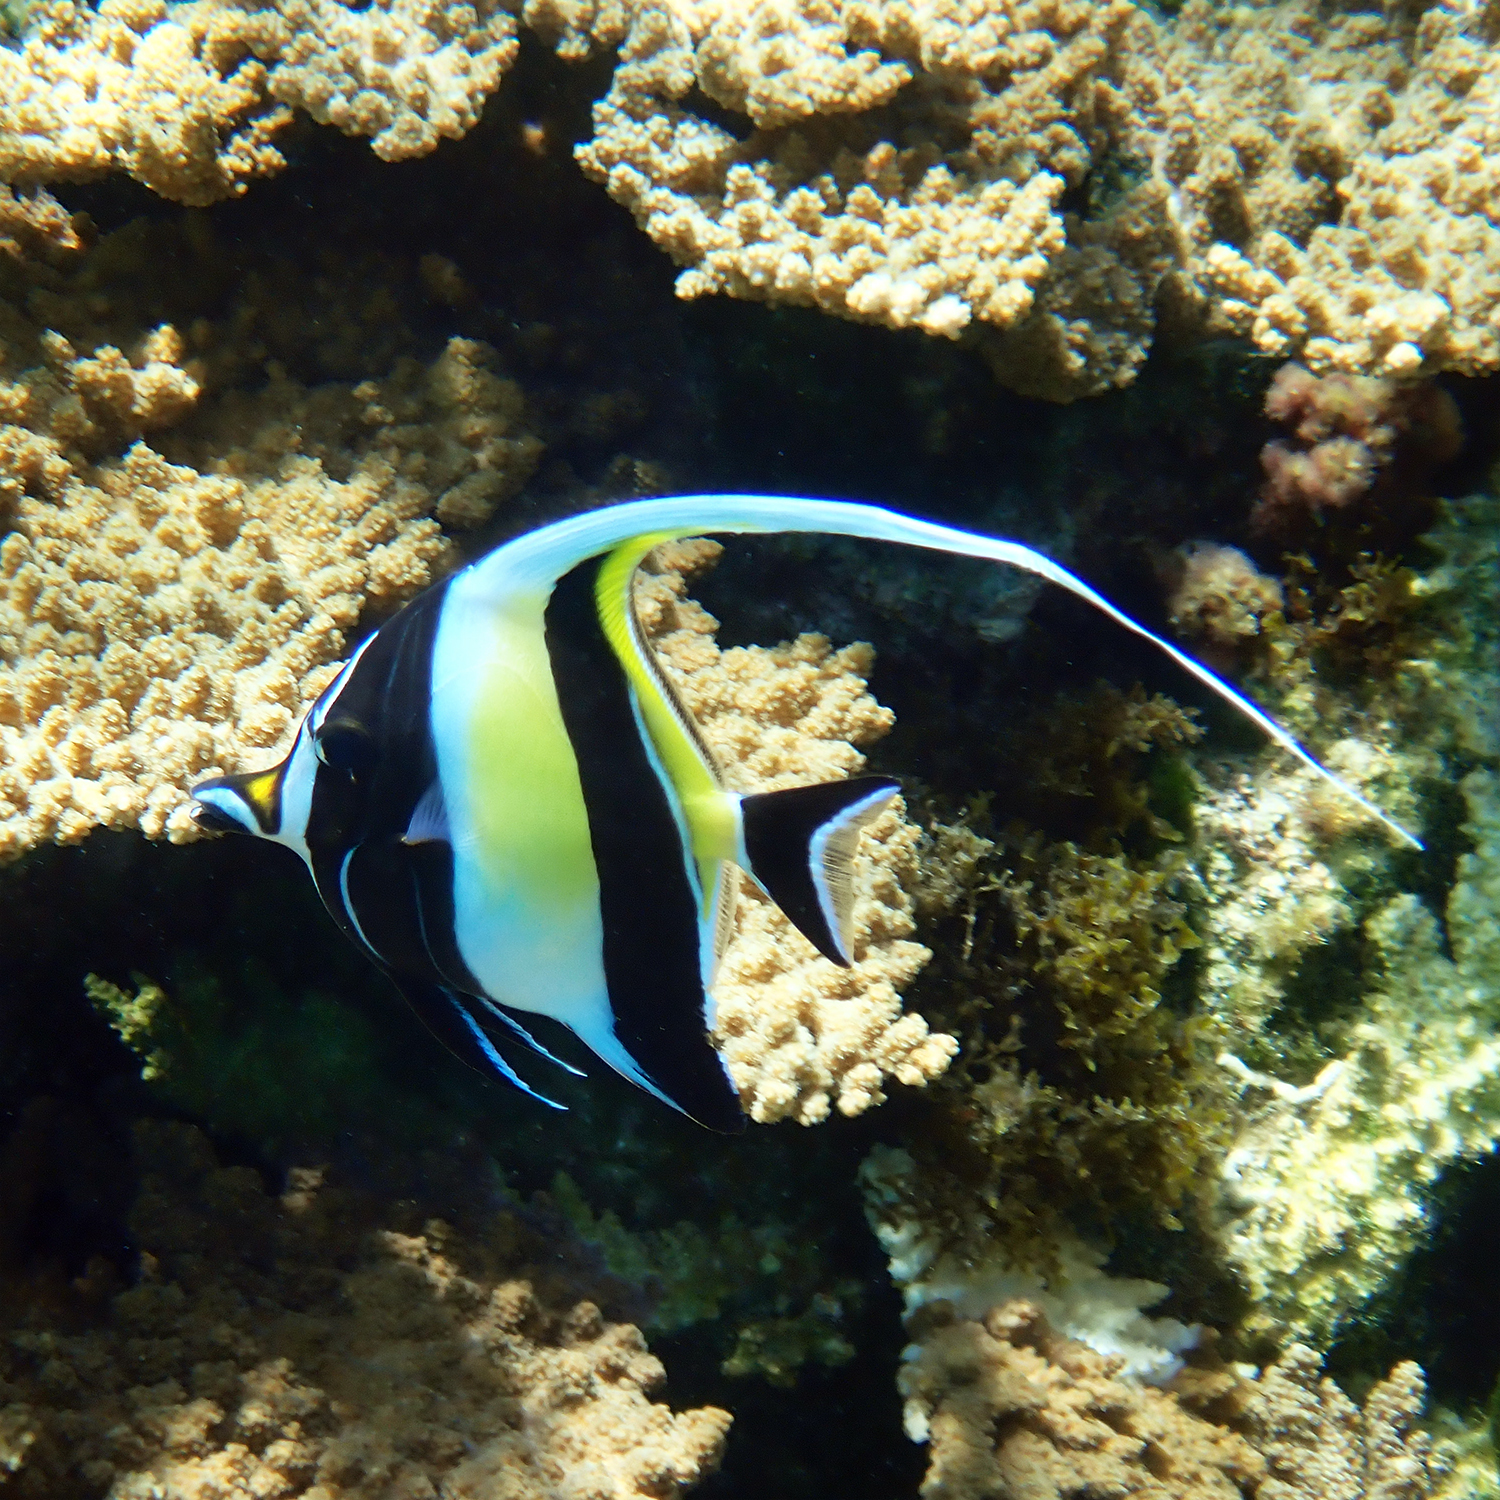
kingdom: Animalia
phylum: Chordata
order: Perciformes
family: Zanclidae
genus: Zanclus
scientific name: Zanclus cornutus
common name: Moorish idol
